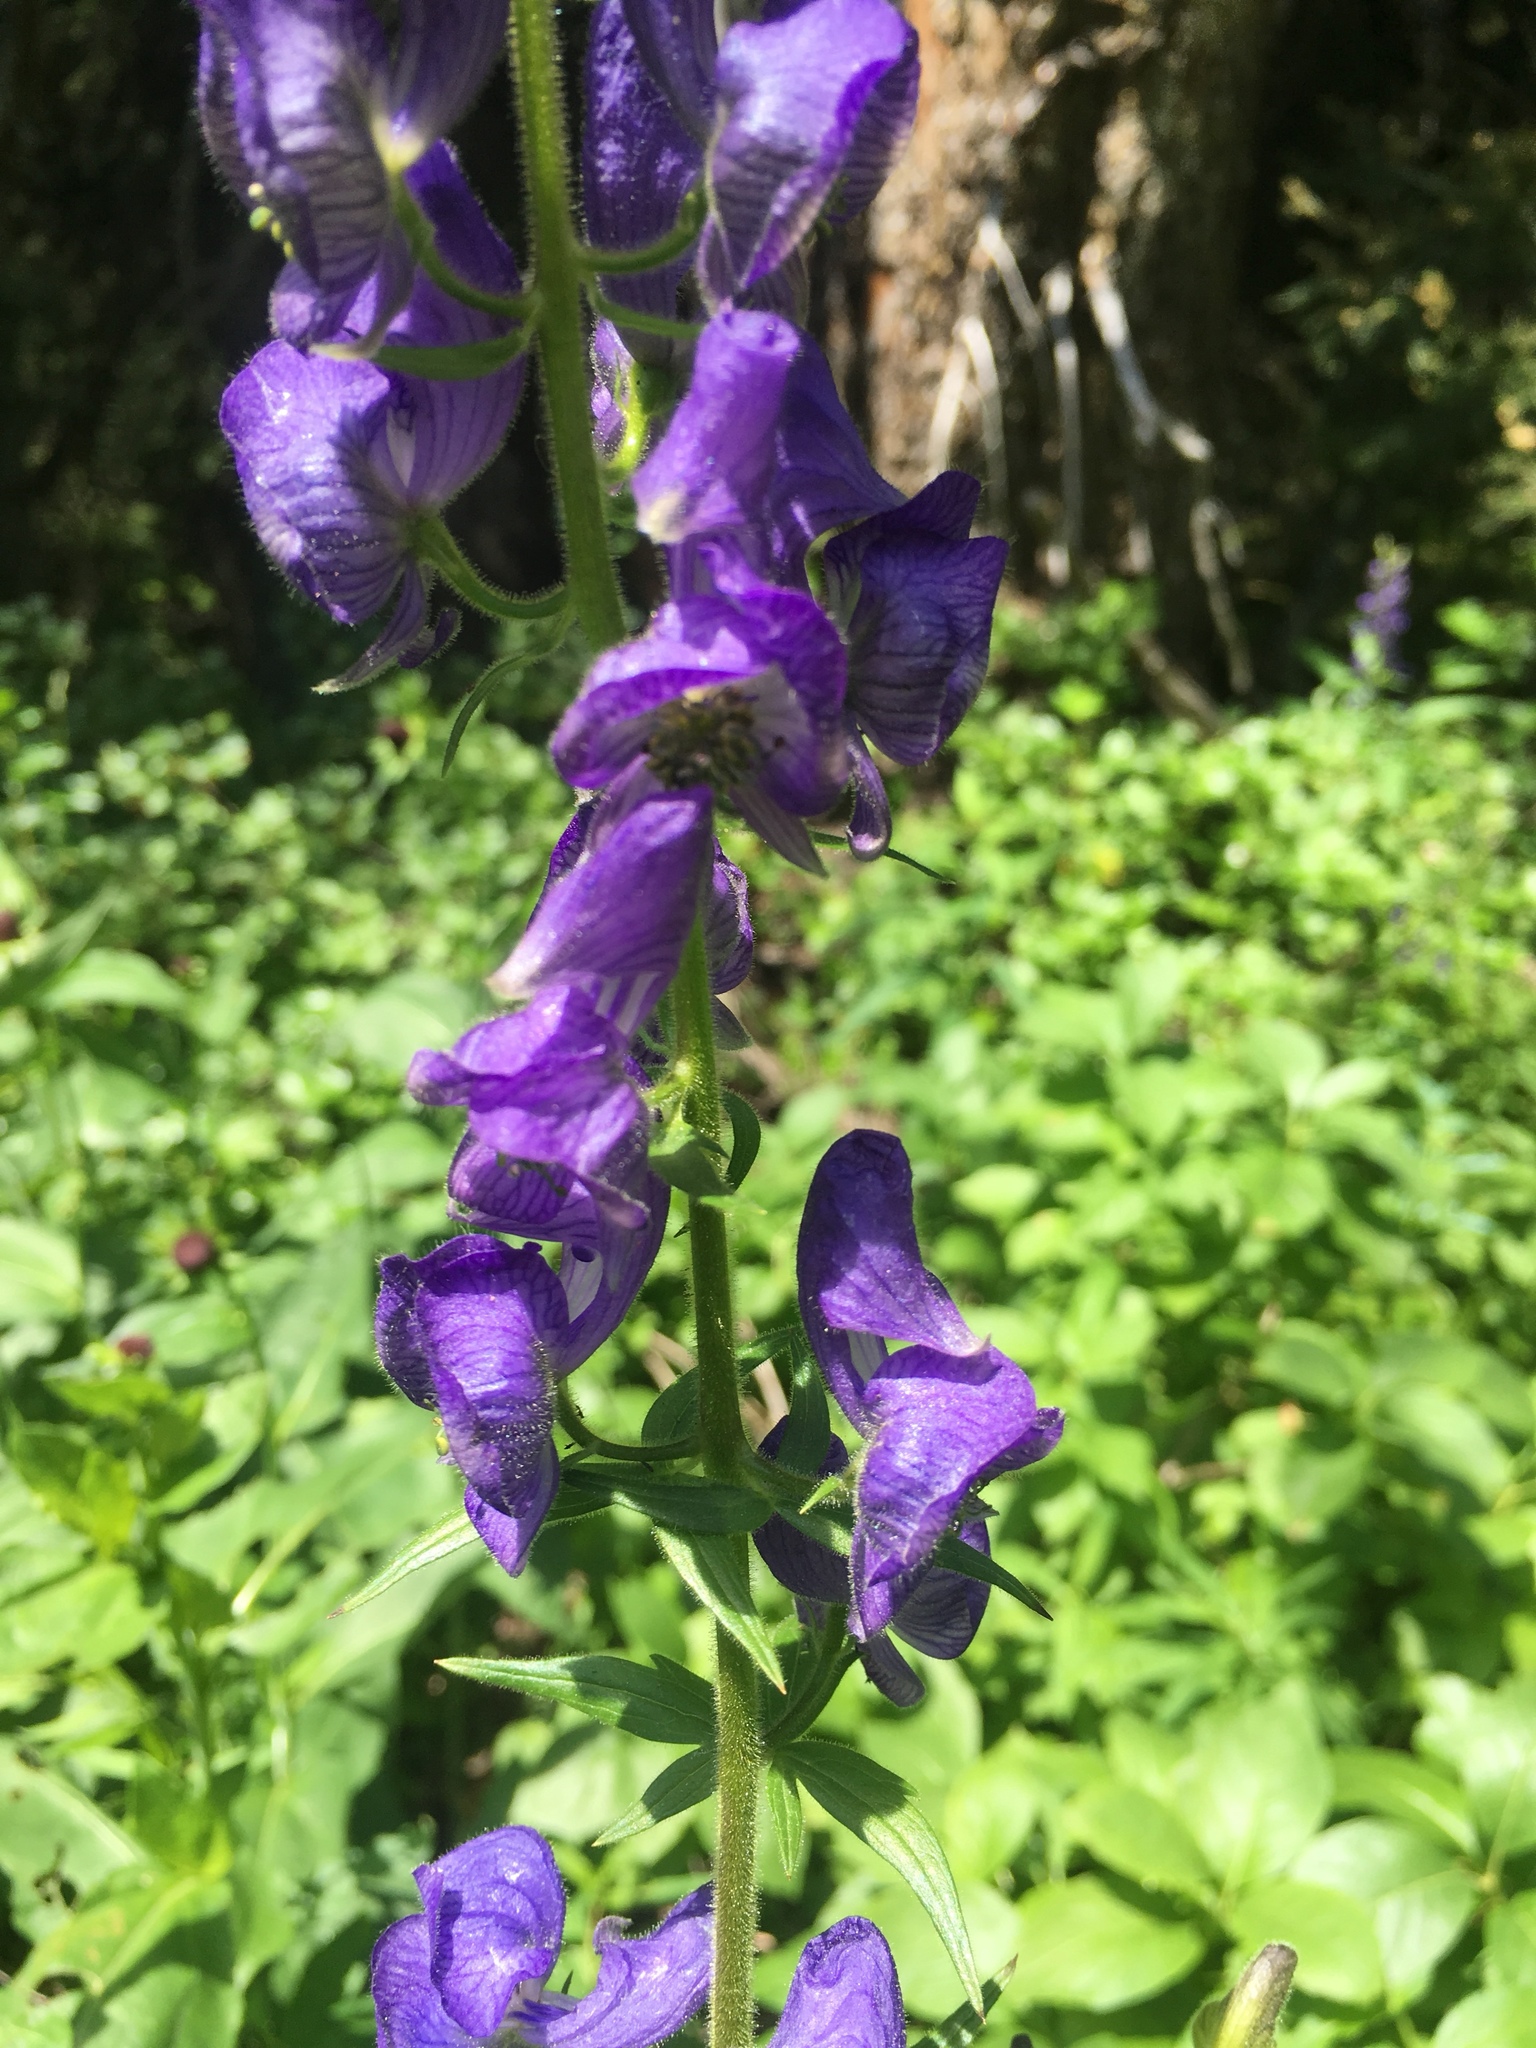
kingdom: Plantae
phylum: Tracheophyta
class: Magnoliopsida
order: Ranunculales
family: Ranunculaceae
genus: Aconitum
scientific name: Aconitum columbianum
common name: Columbia aconite
